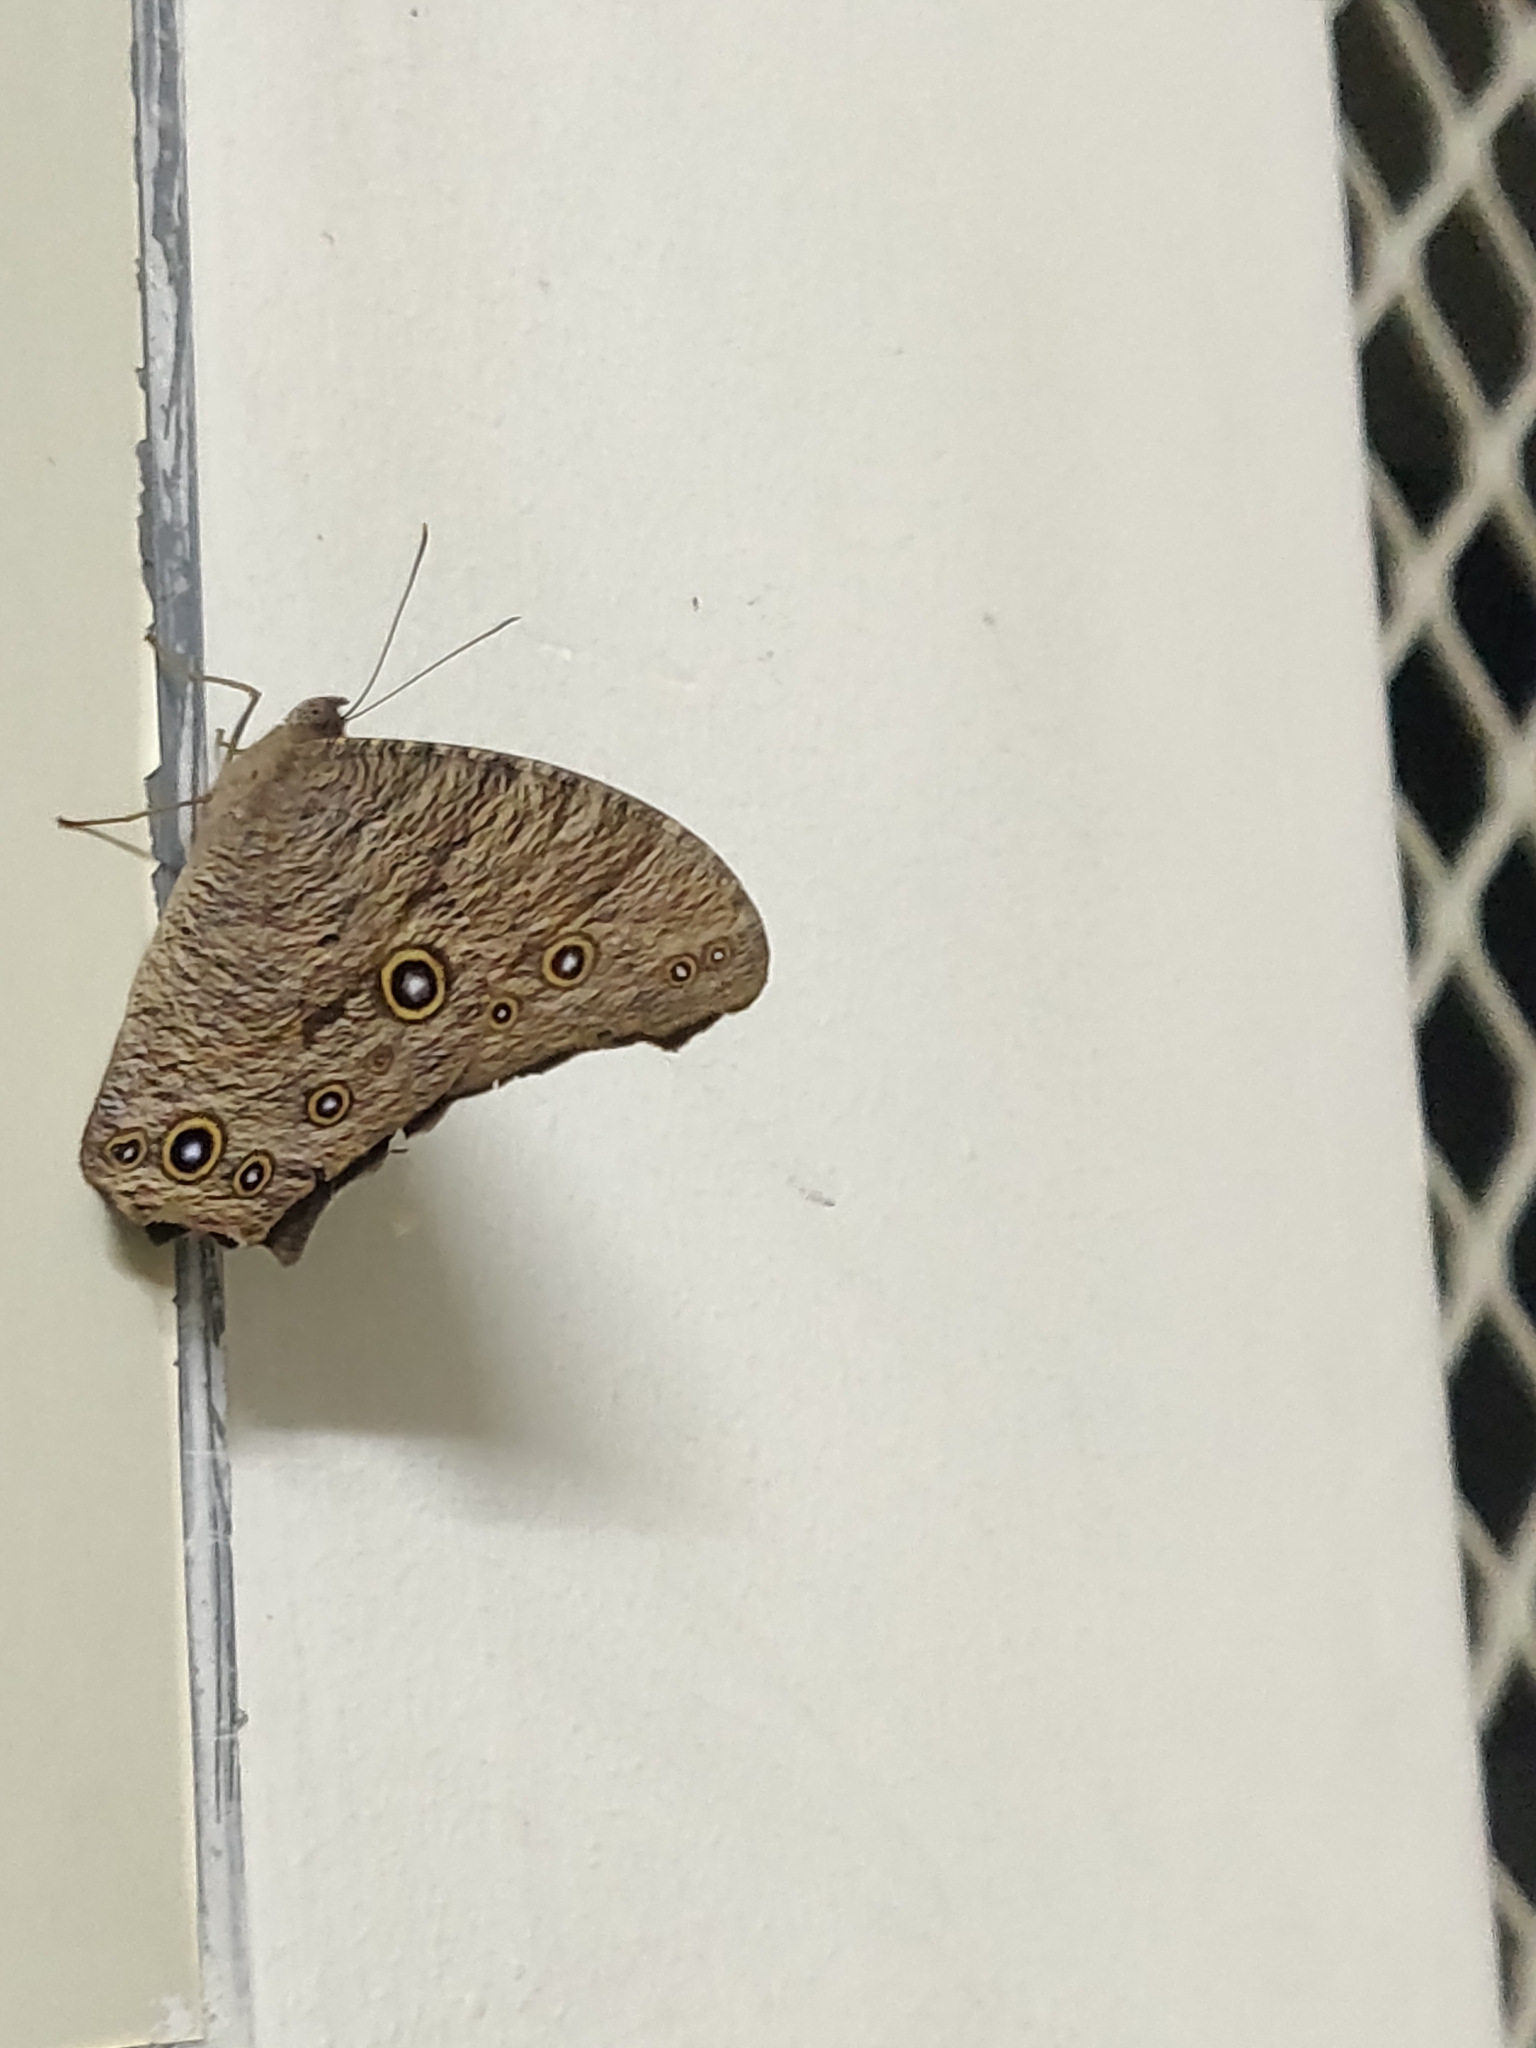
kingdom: Animalia
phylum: Arthropoda
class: Insecta
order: Lepidoptera
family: Nymphalidae
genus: Melanitis
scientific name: Melanitis leda
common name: Twilight brown
